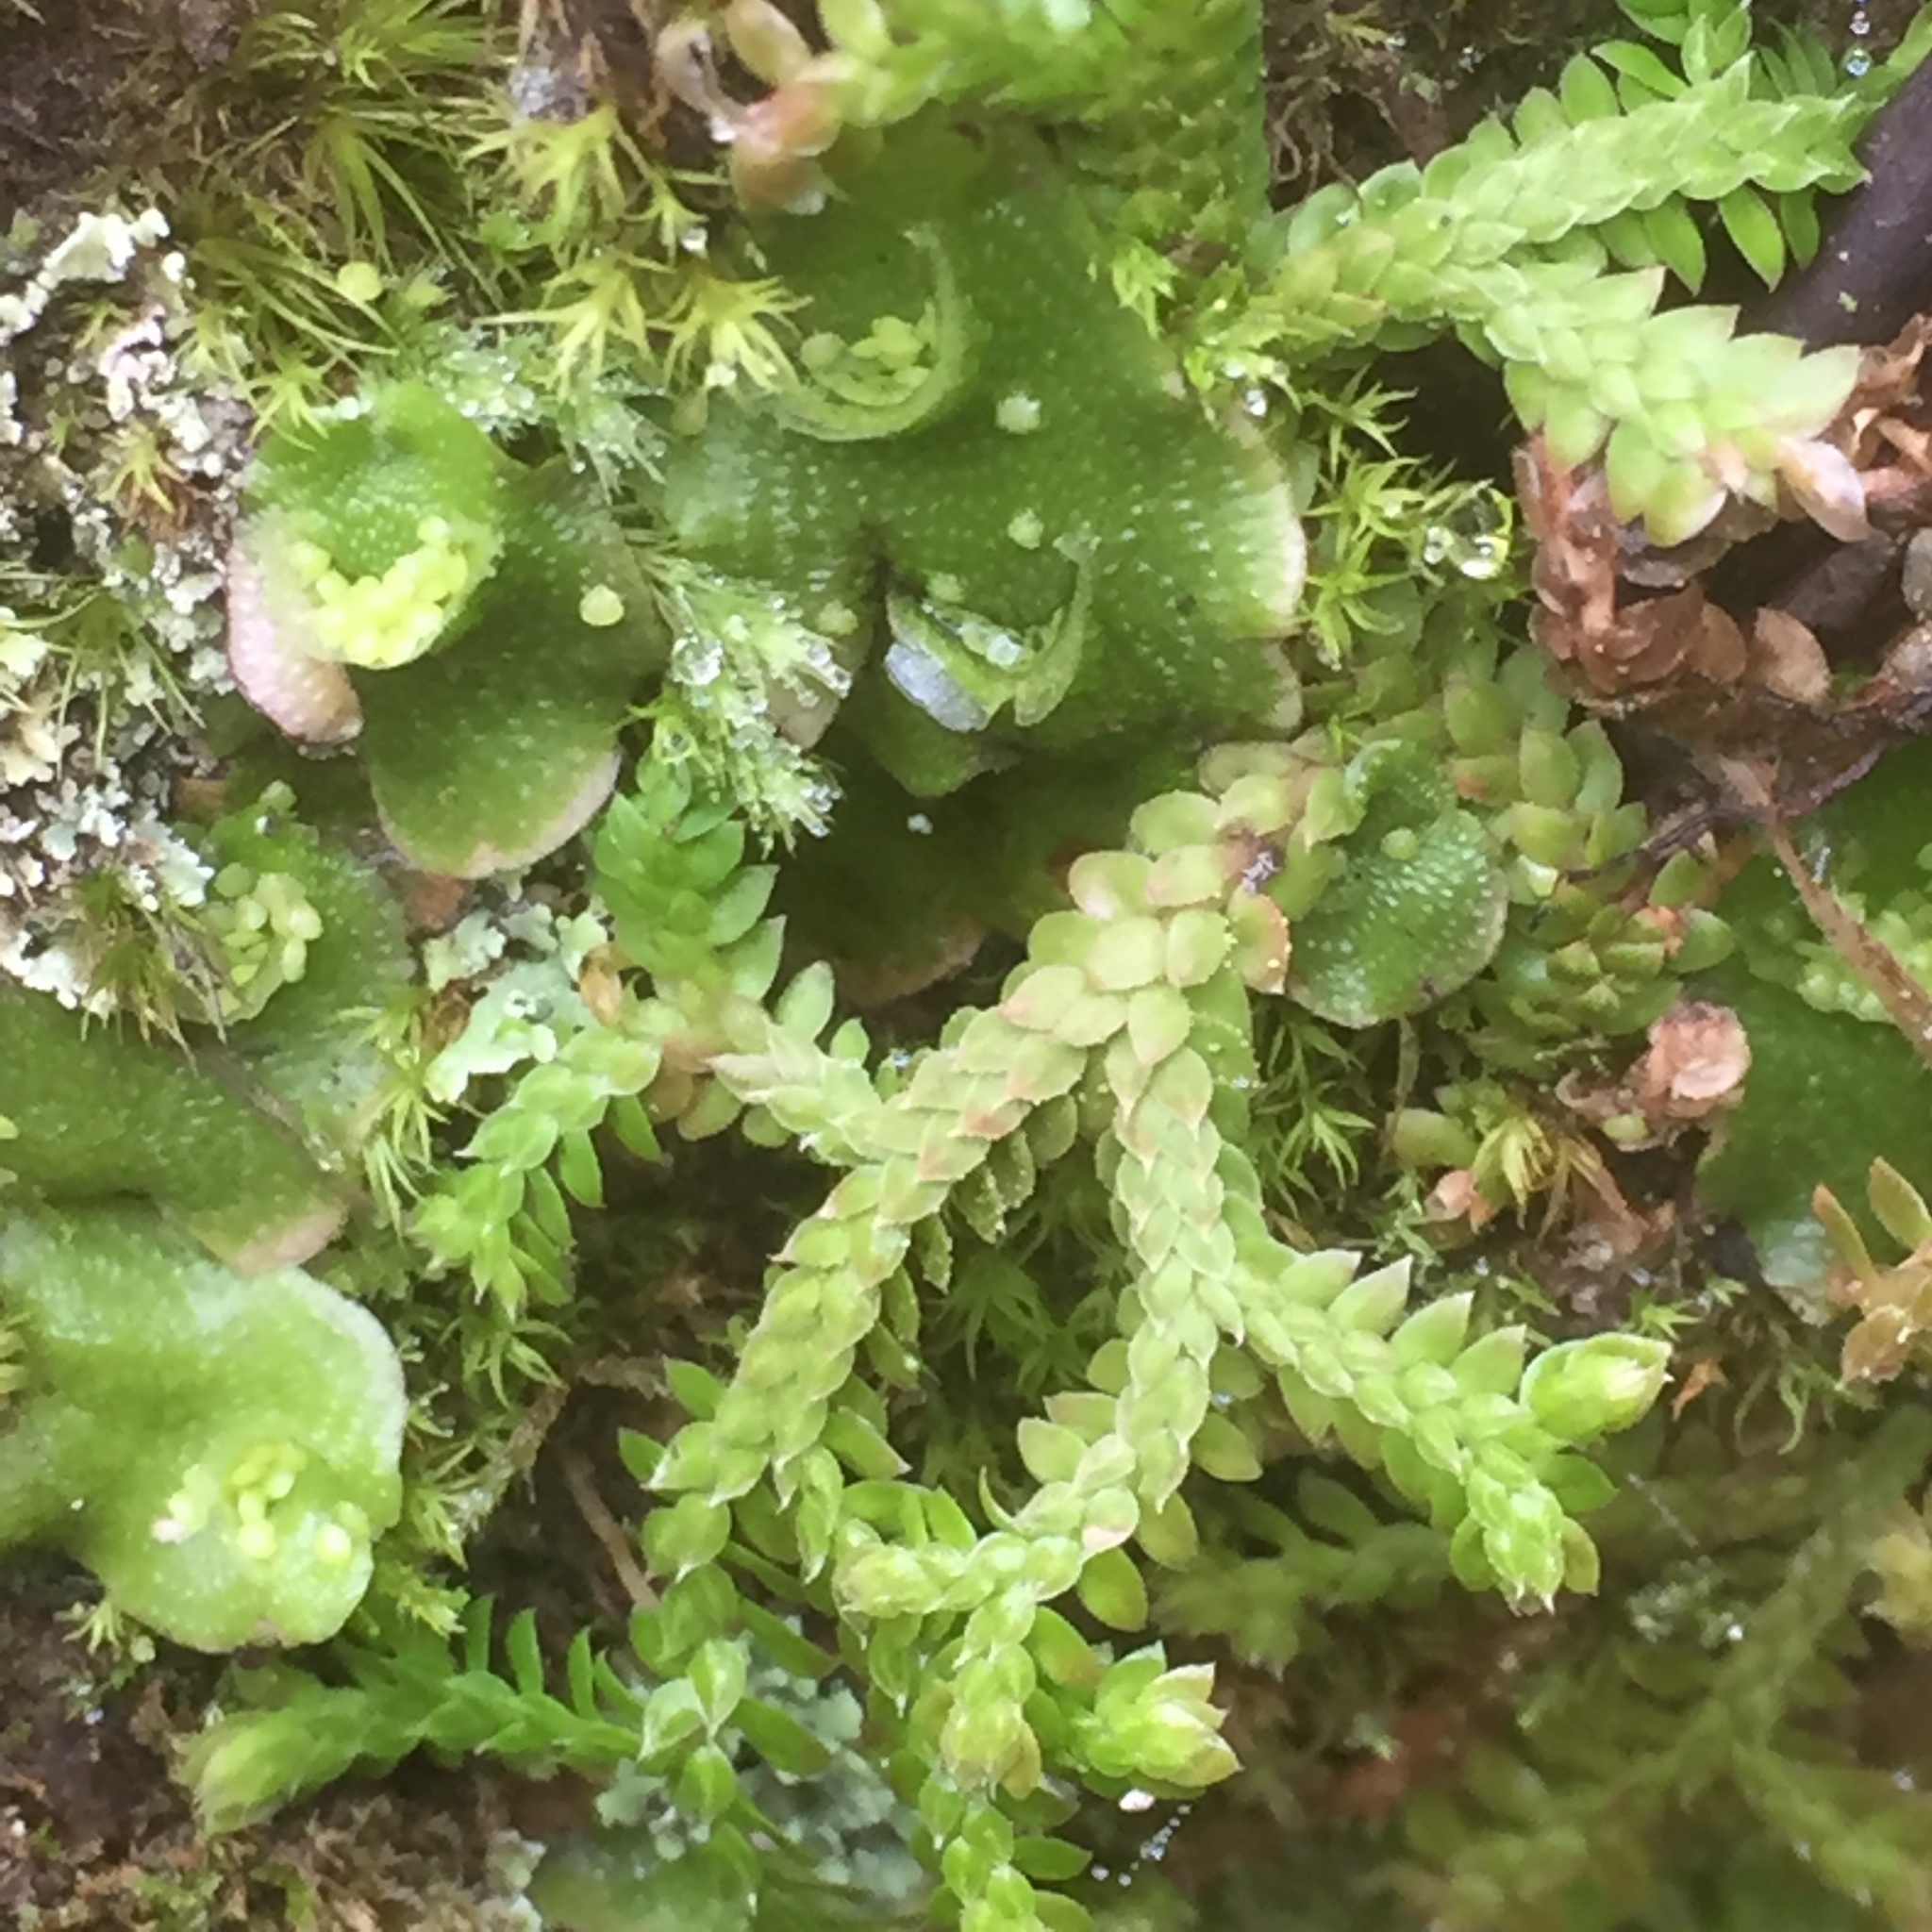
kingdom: Plantae
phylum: Marchantiophyta
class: Marchantiopsida
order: Lunulariales
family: Lunulariaceae
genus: Lunularia
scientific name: Lunularia cruciata
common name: Crescent-cup liverwort
